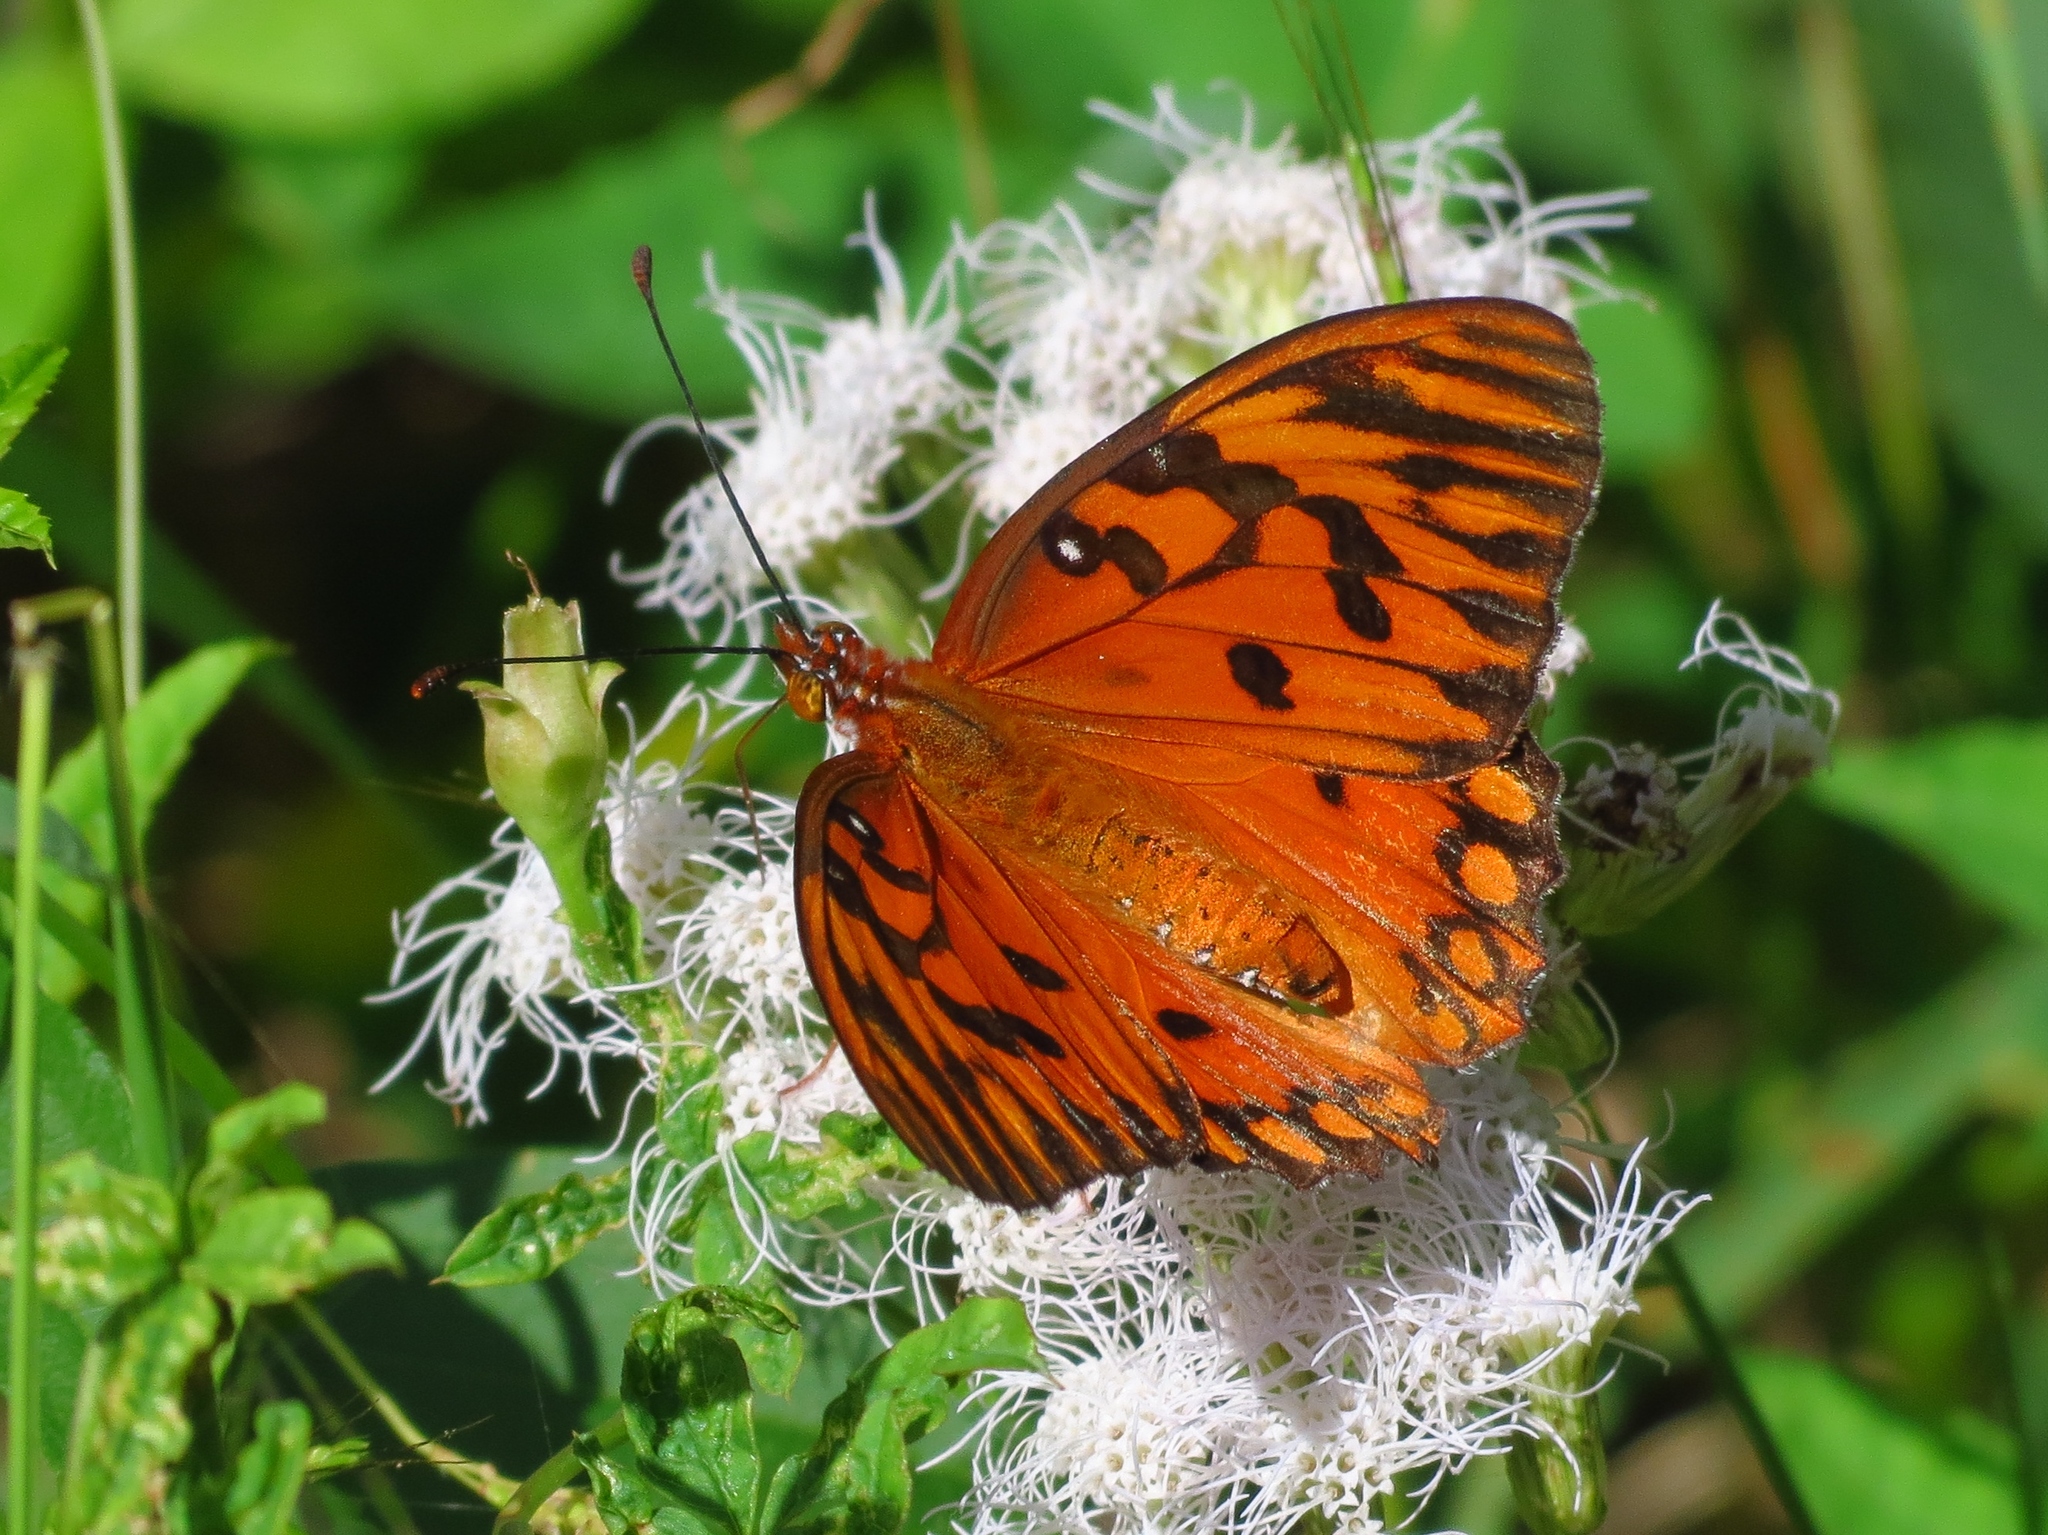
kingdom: Animalia
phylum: Arthropoda
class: Insecta
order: Lepidoptera
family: Nymphalidae
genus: Dione
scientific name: Dione vanillae
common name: Gulf fritillary
